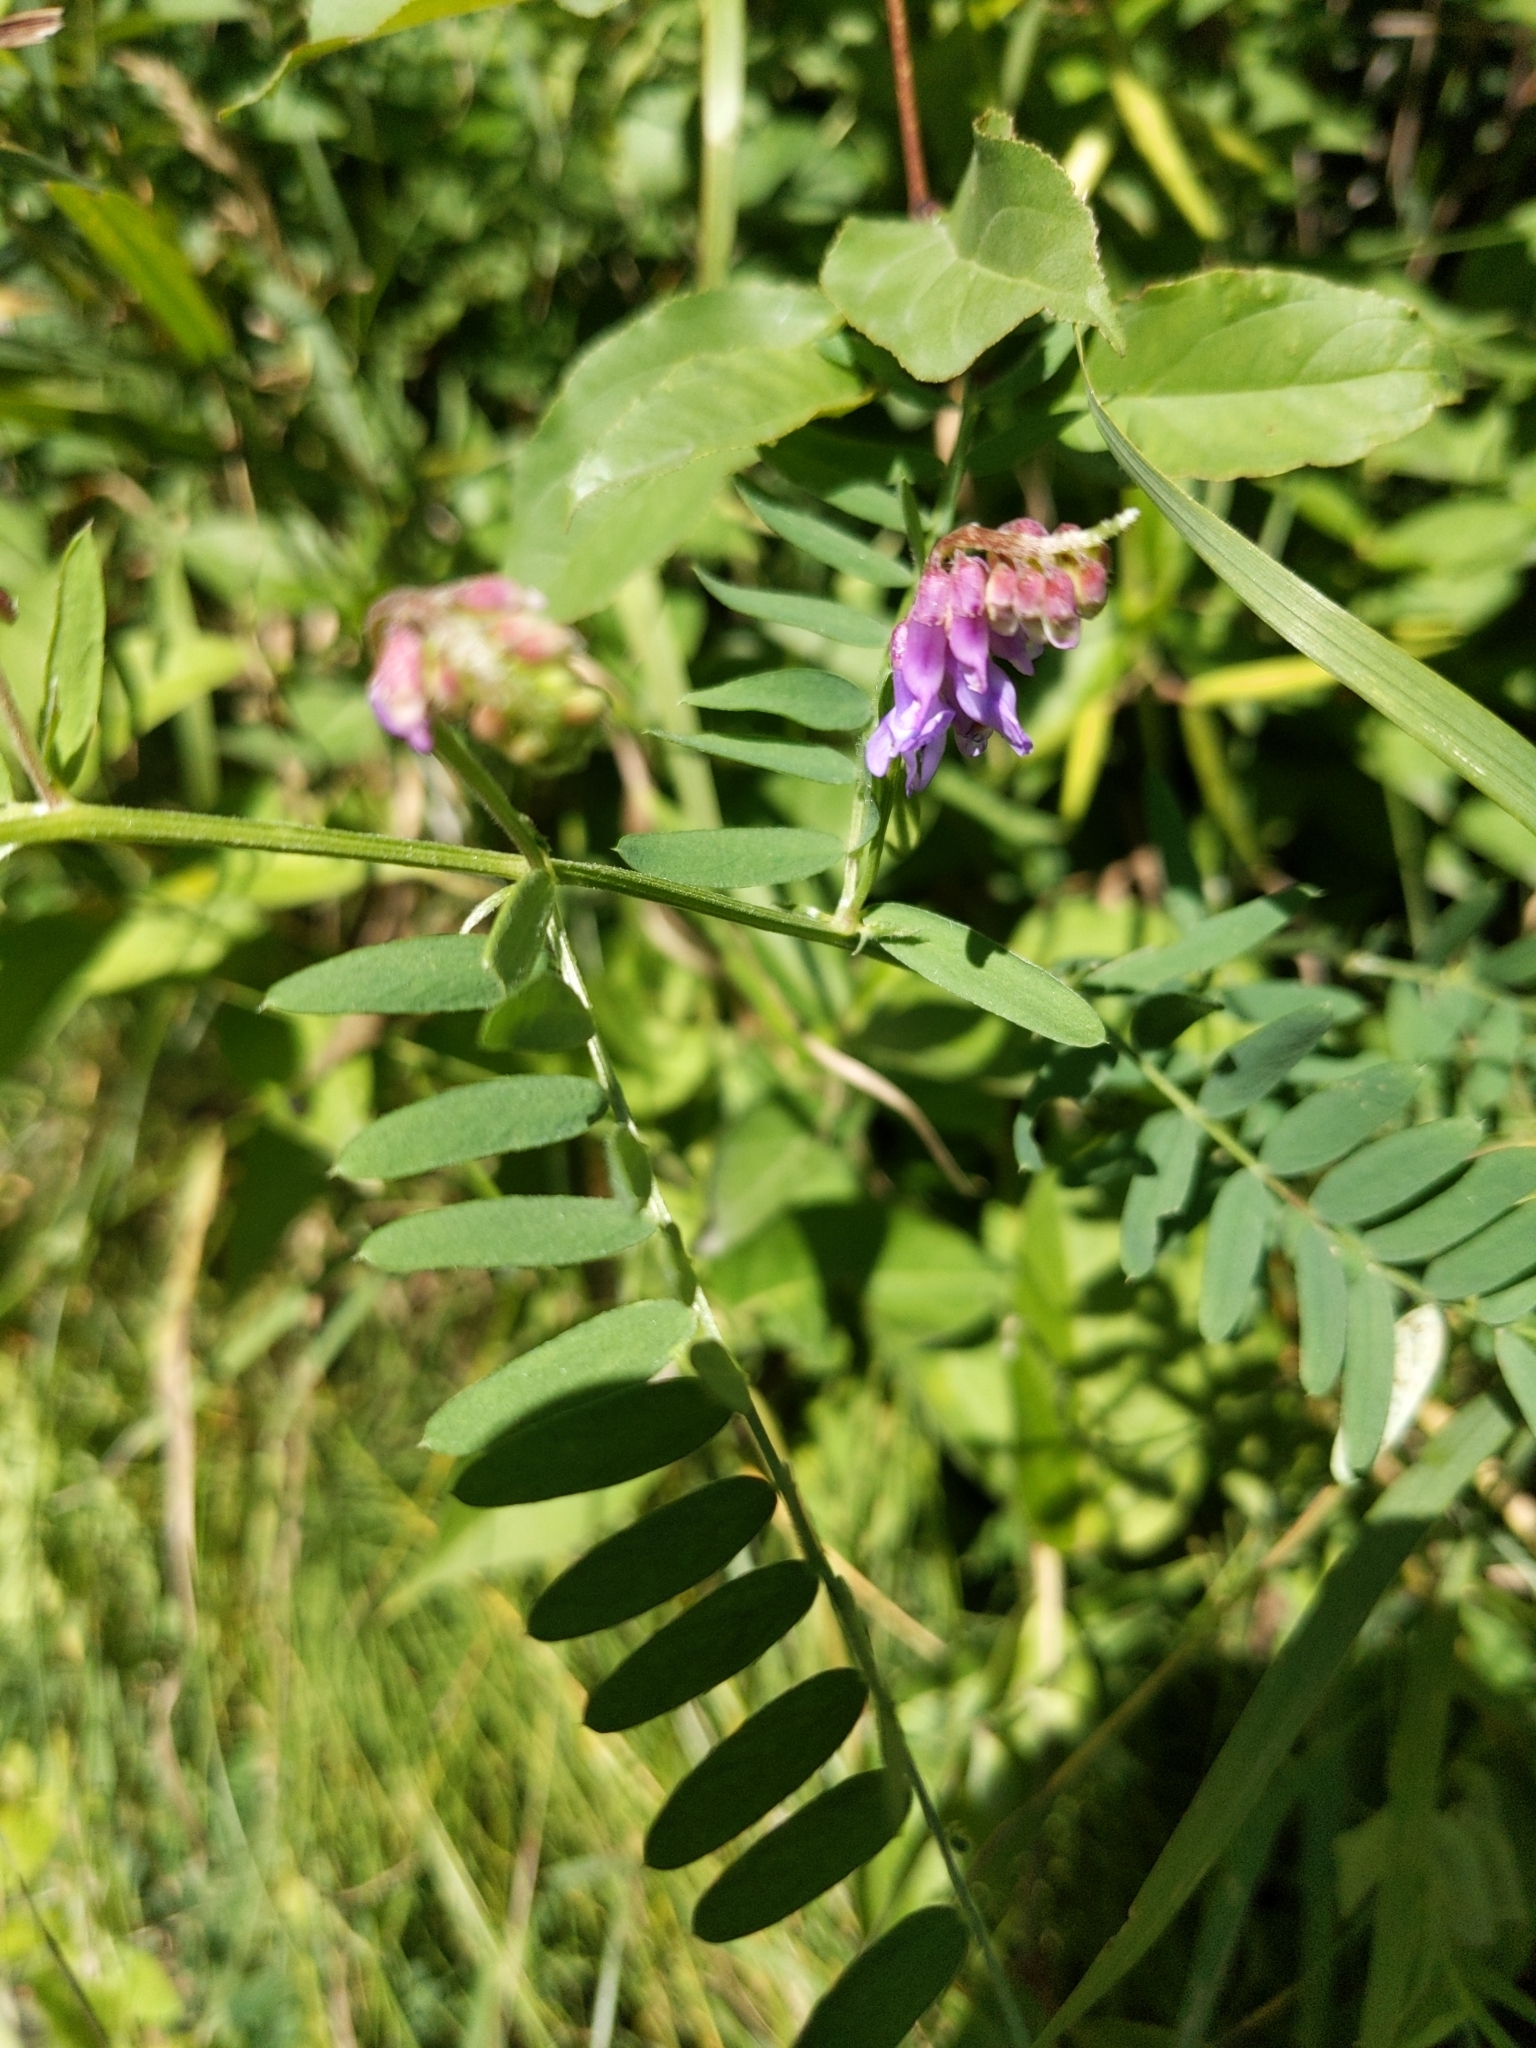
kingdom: Plantae
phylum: Tracheophyta
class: Magnoliopsida
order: Fabales
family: Fabaceae
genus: Vicia
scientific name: Vicia cracca
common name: Bird vetch
